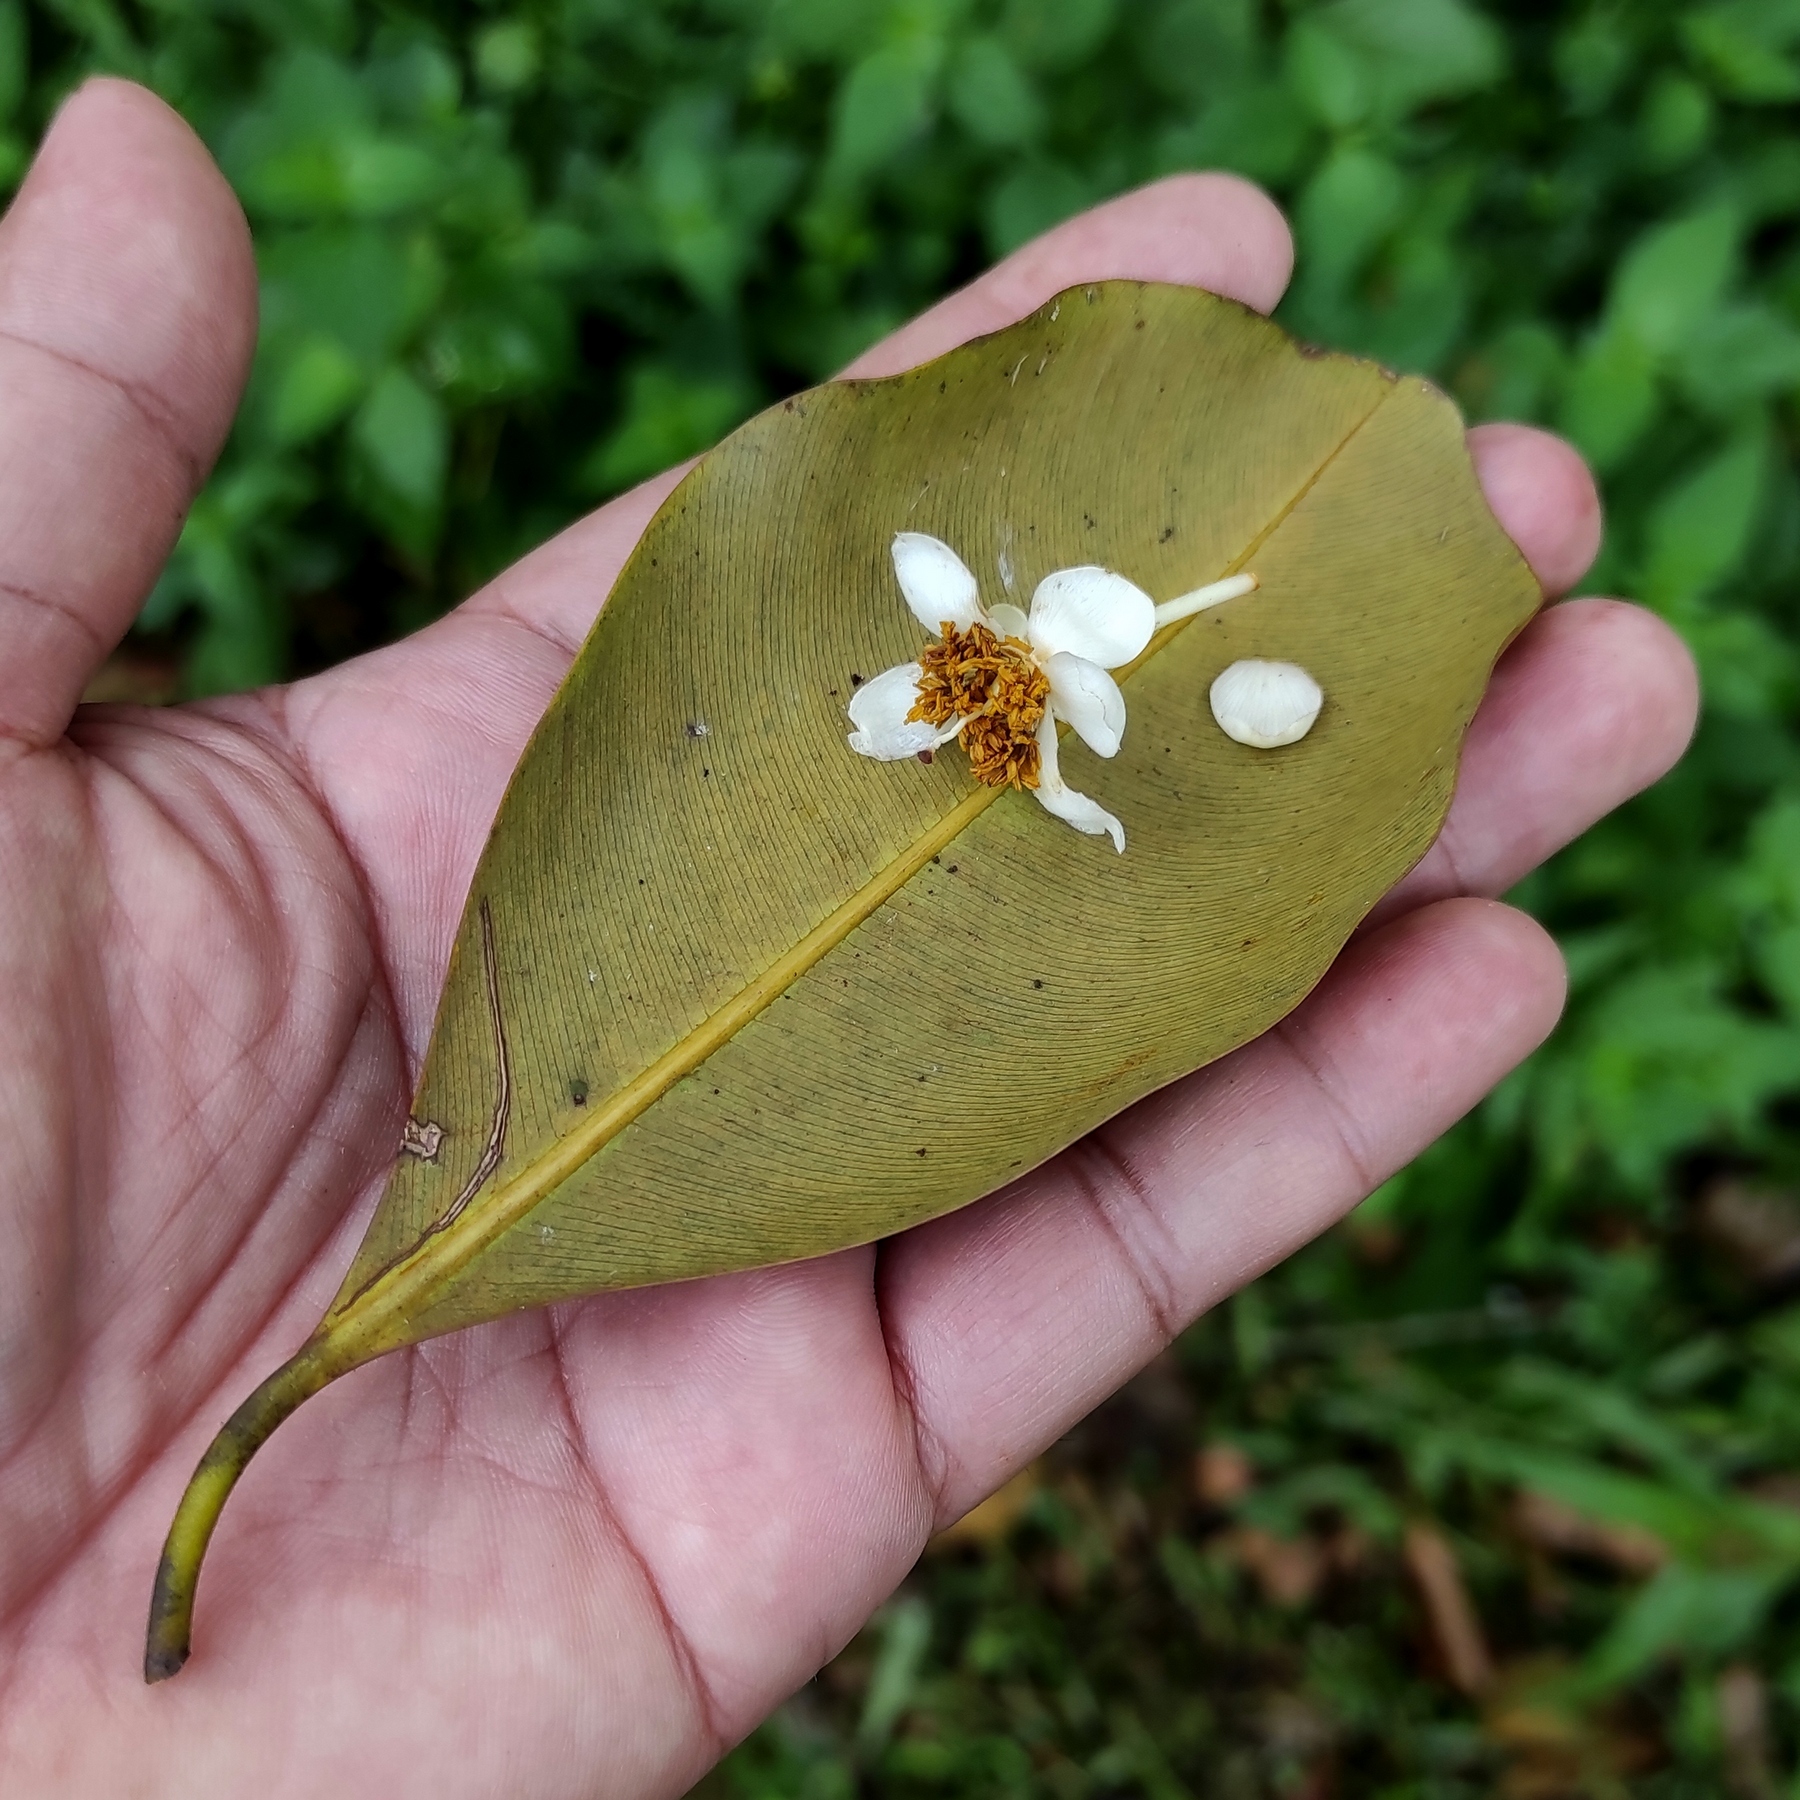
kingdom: Plantae
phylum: Tracheophyta
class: Magnoliopsida
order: Malpighiales
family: Calophyllaceae
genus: Calophyllum
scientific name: Calophyllum inophyllum
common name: Alexandrian laurel
